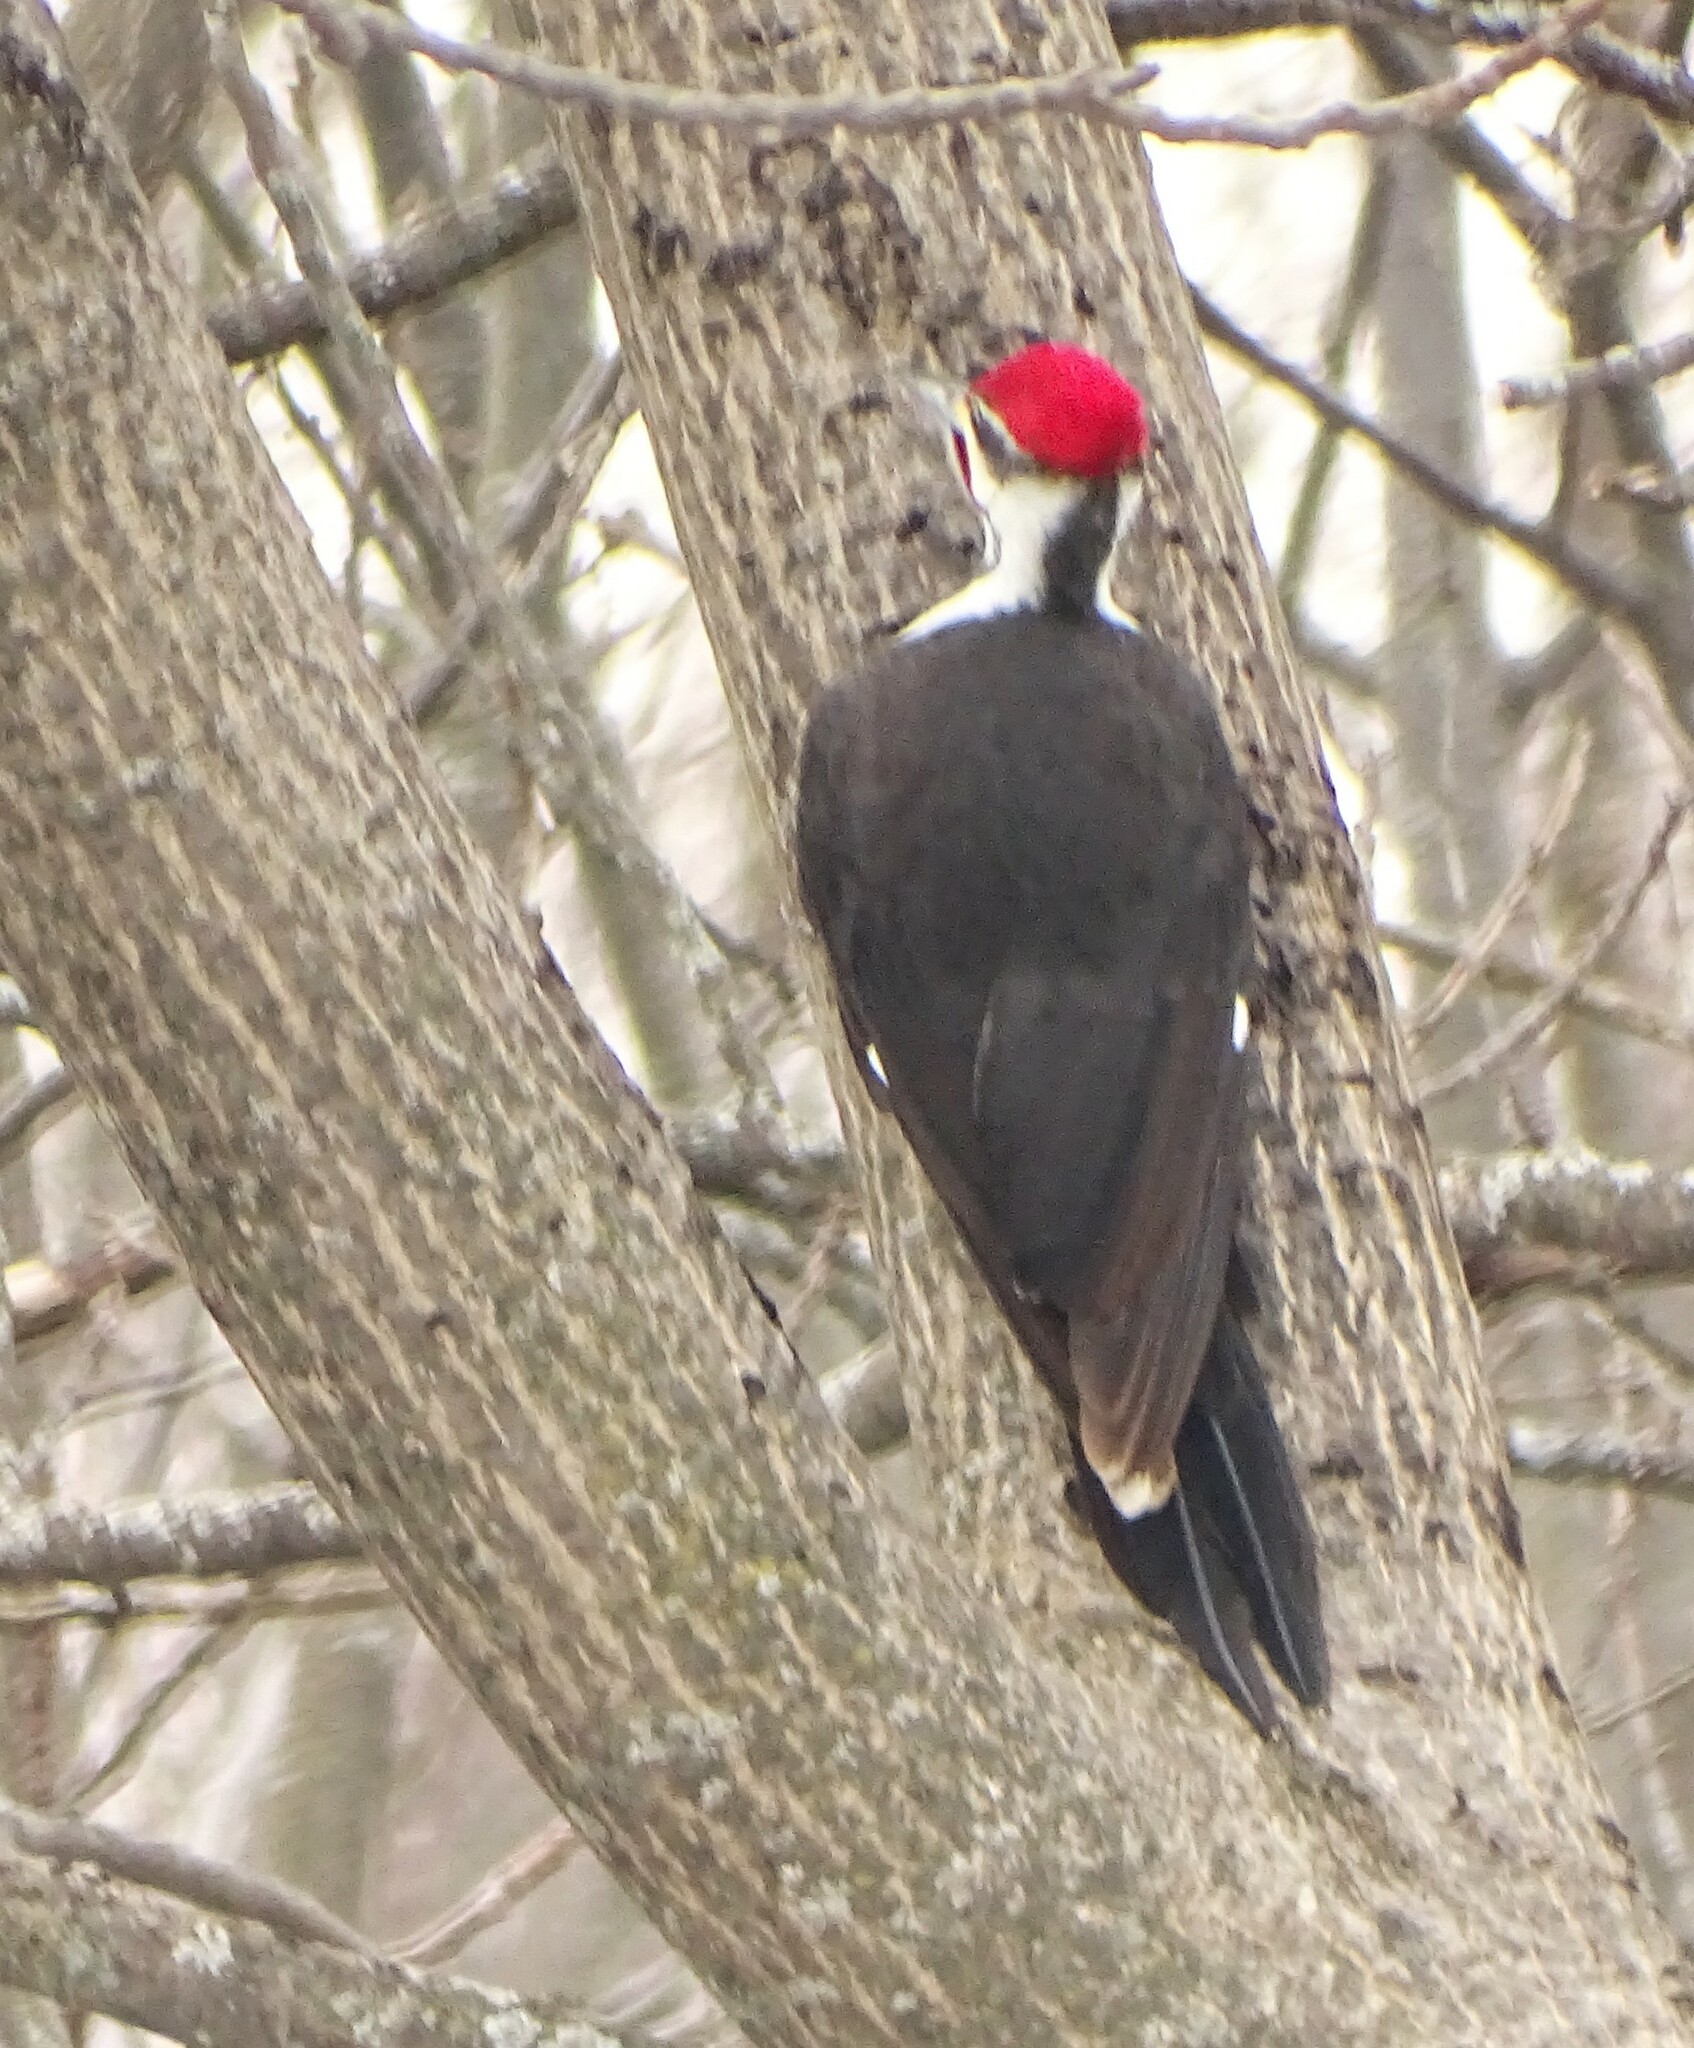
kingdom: Animalia
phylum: Chordata
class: Aves
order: Piciformes
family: Picidae
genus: Dryocopus
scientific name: Dryocopus pileatus
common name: Pileated woodpecker
